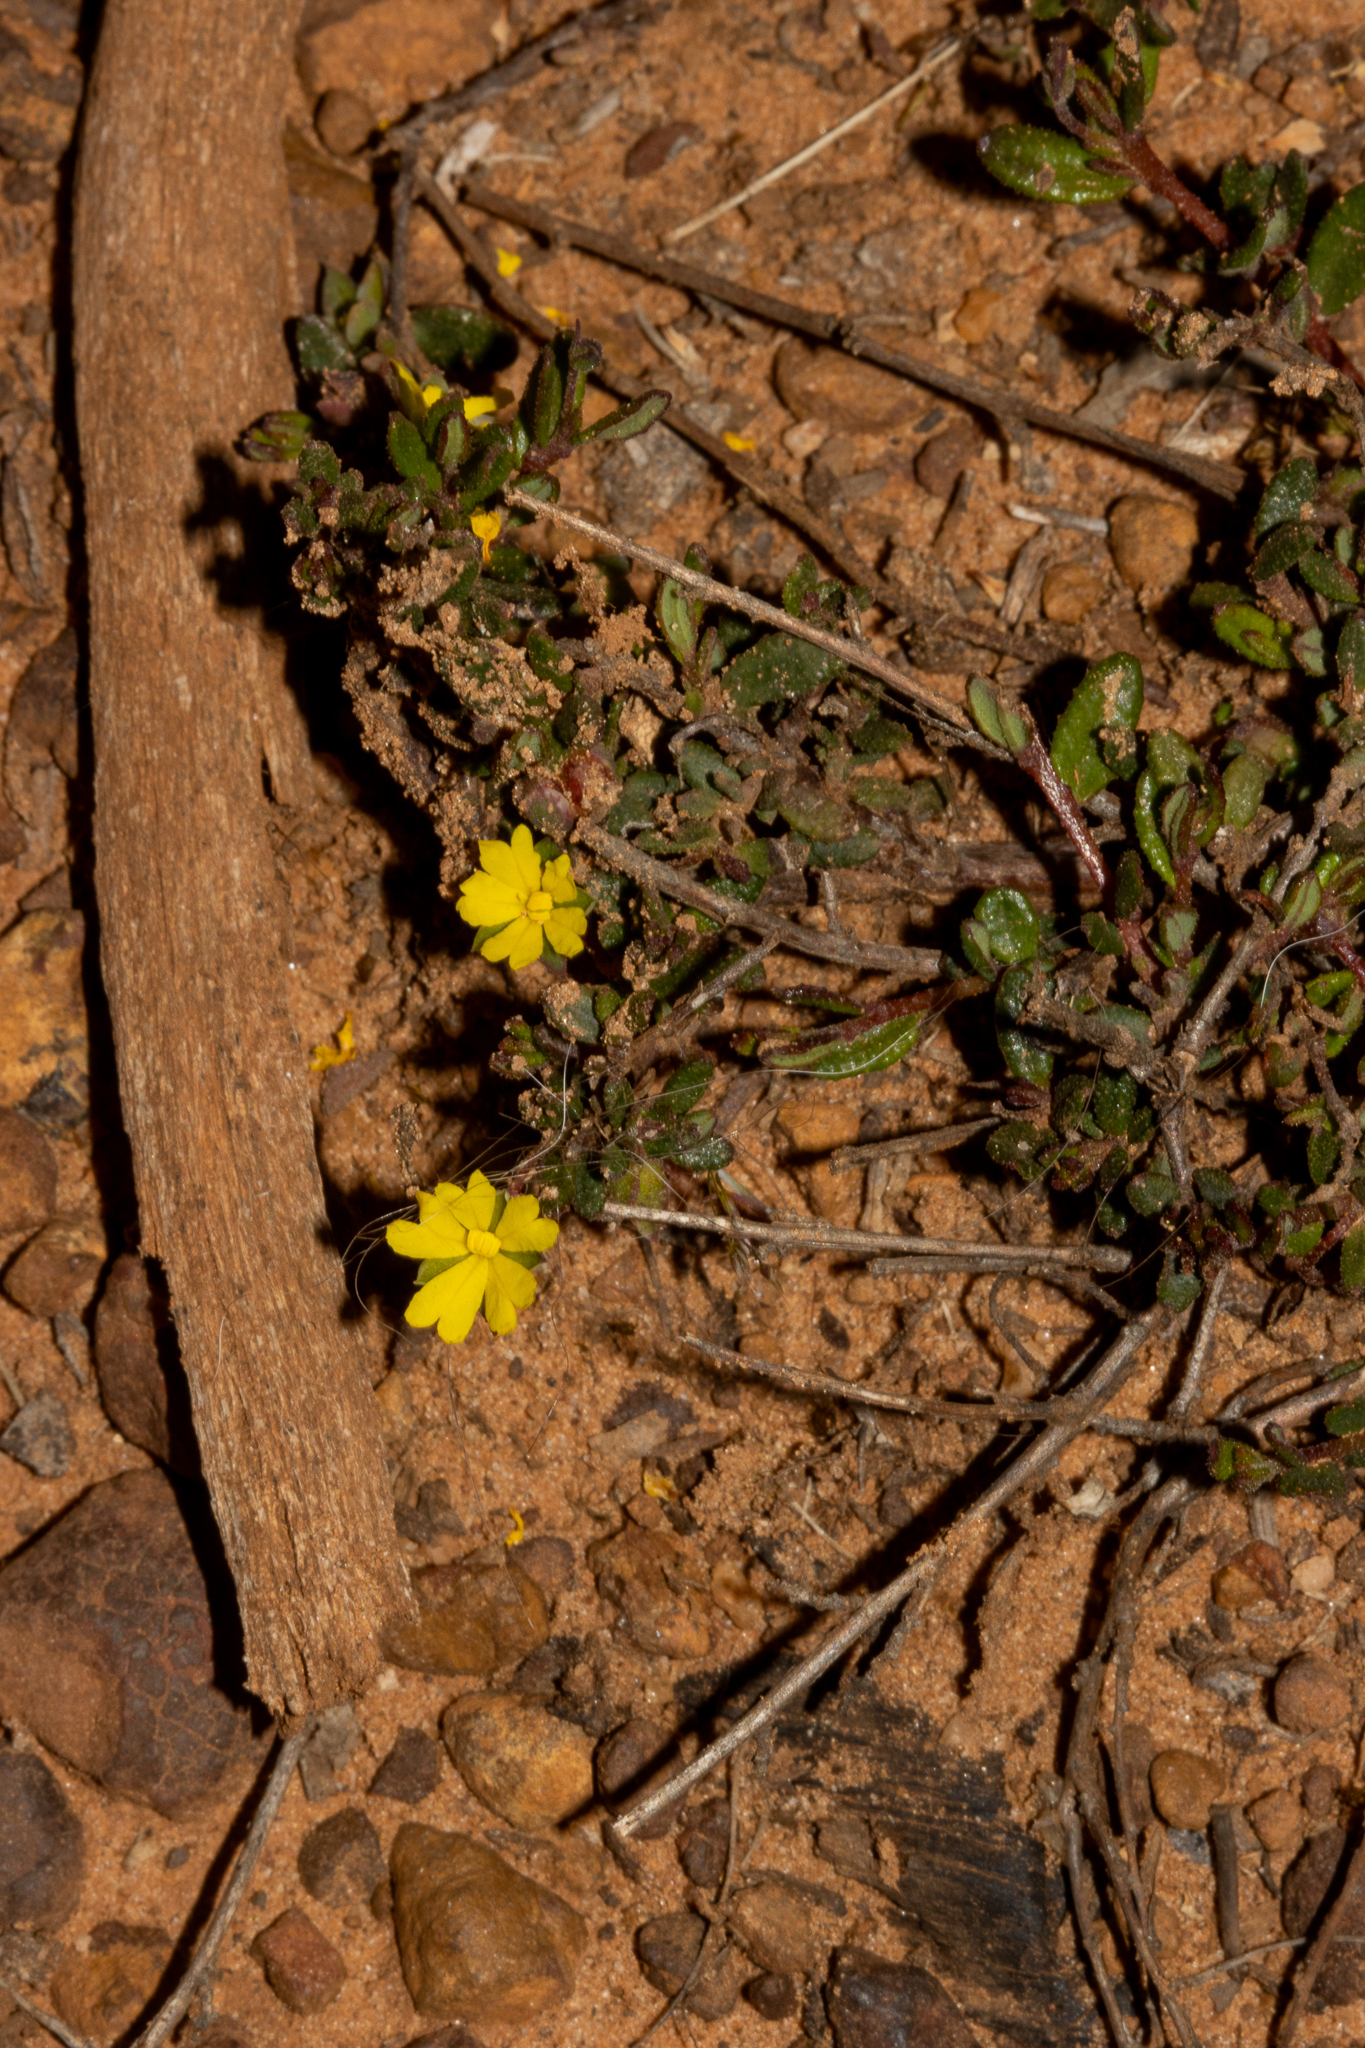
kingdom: Plantae
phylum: Tracheophyta
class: Magnoliopsida
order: Dilleniales
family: Dilleniaceae
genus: Hibbertia
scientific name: Hibbertia
